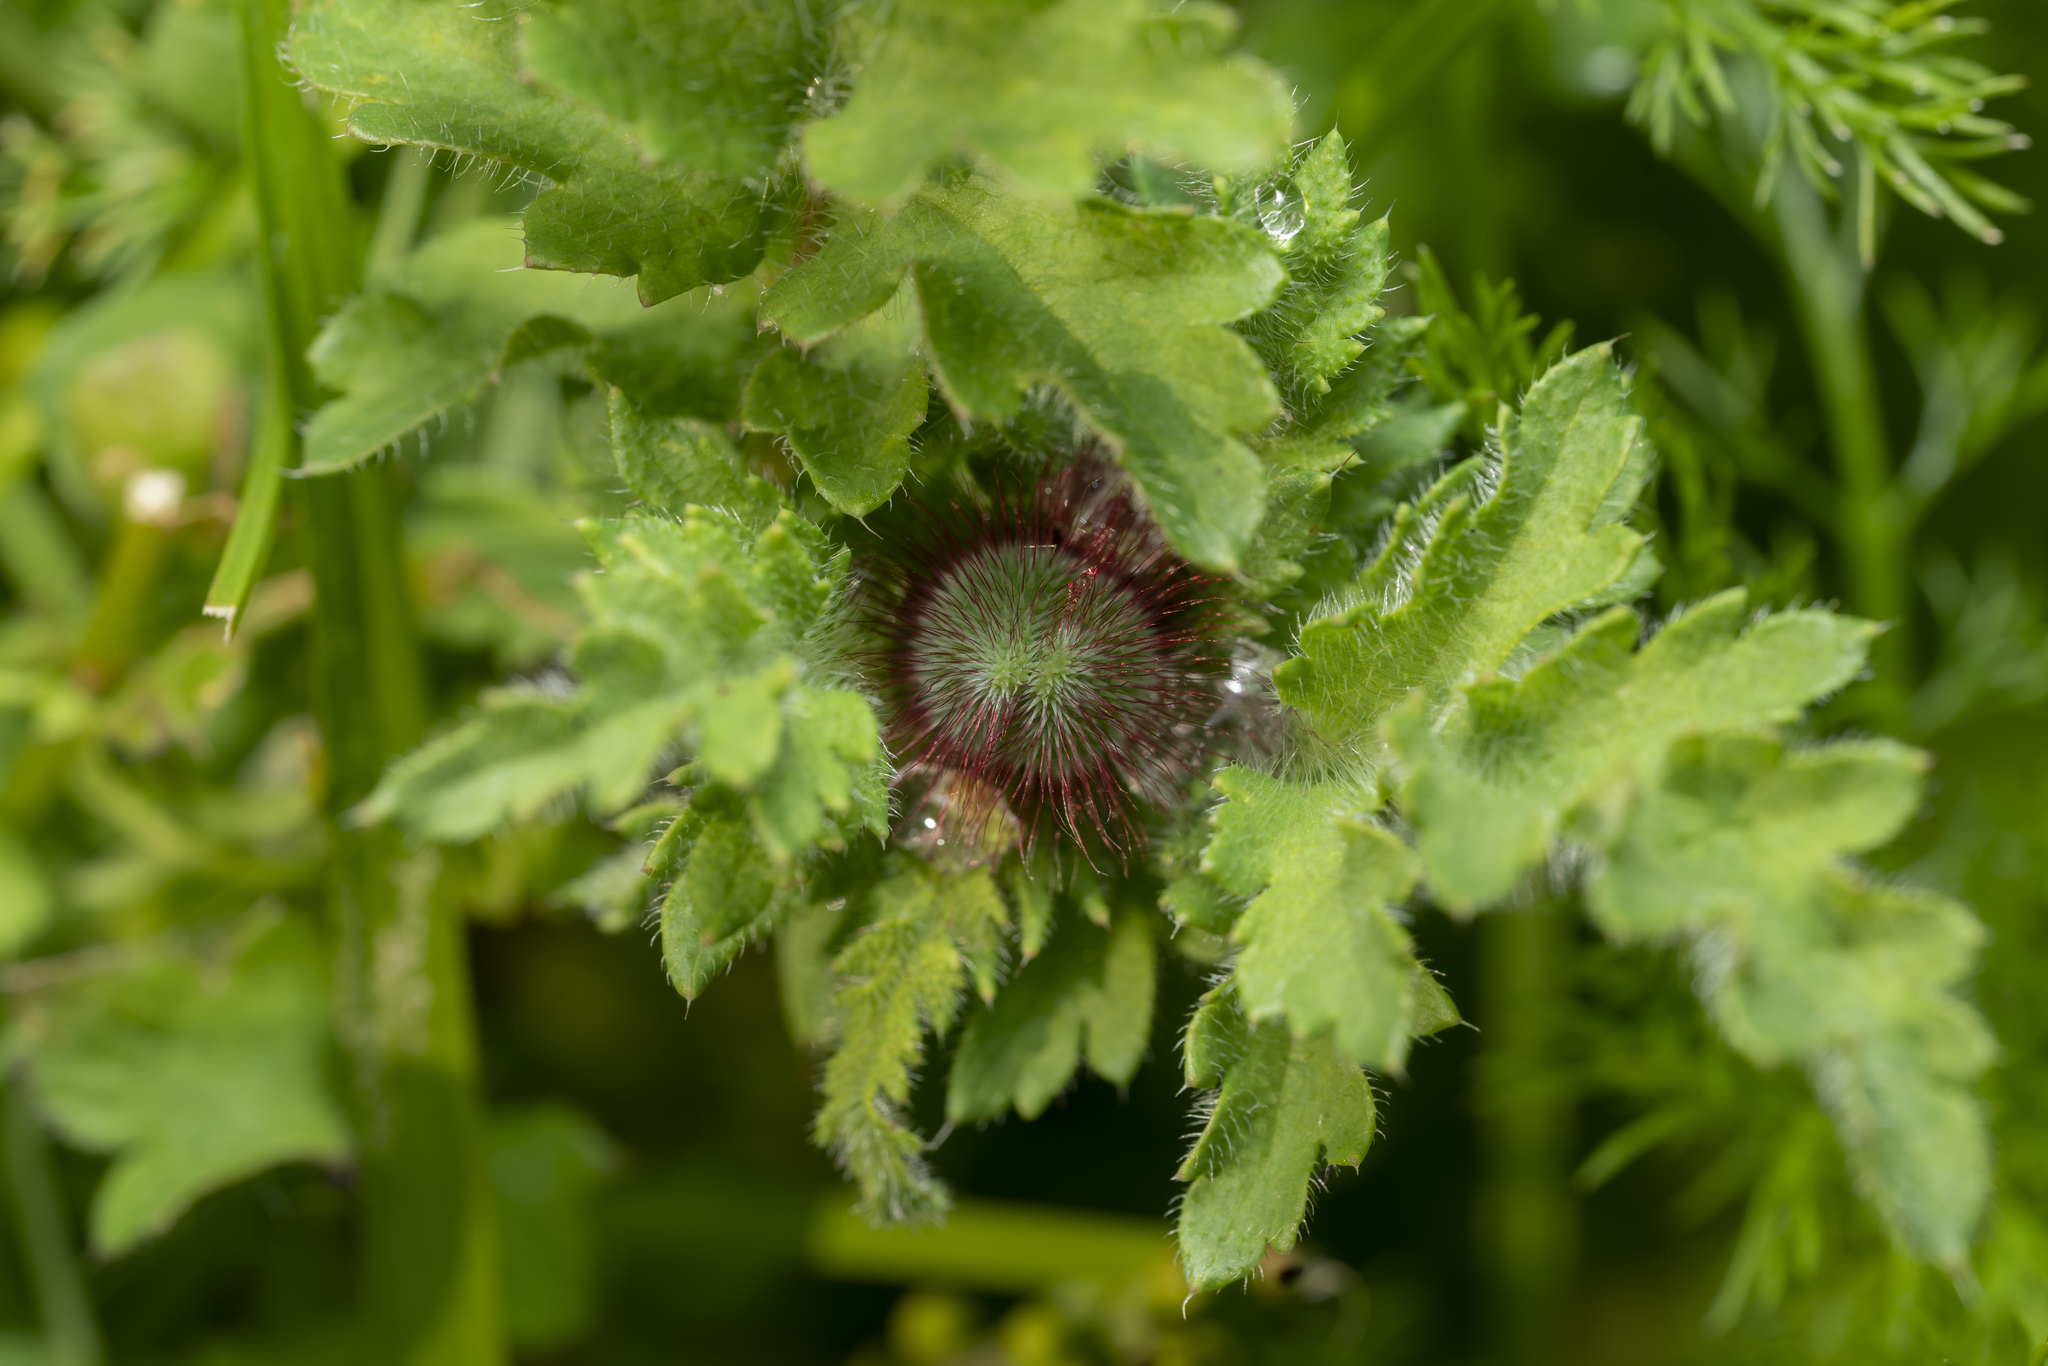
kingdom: Plantae
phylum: Tracheophyta
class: Magnoliopsida
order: Ranunculales
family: Papaveraceae
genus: Papaver
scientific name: Papaver rhoeas
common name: Corn poppy
